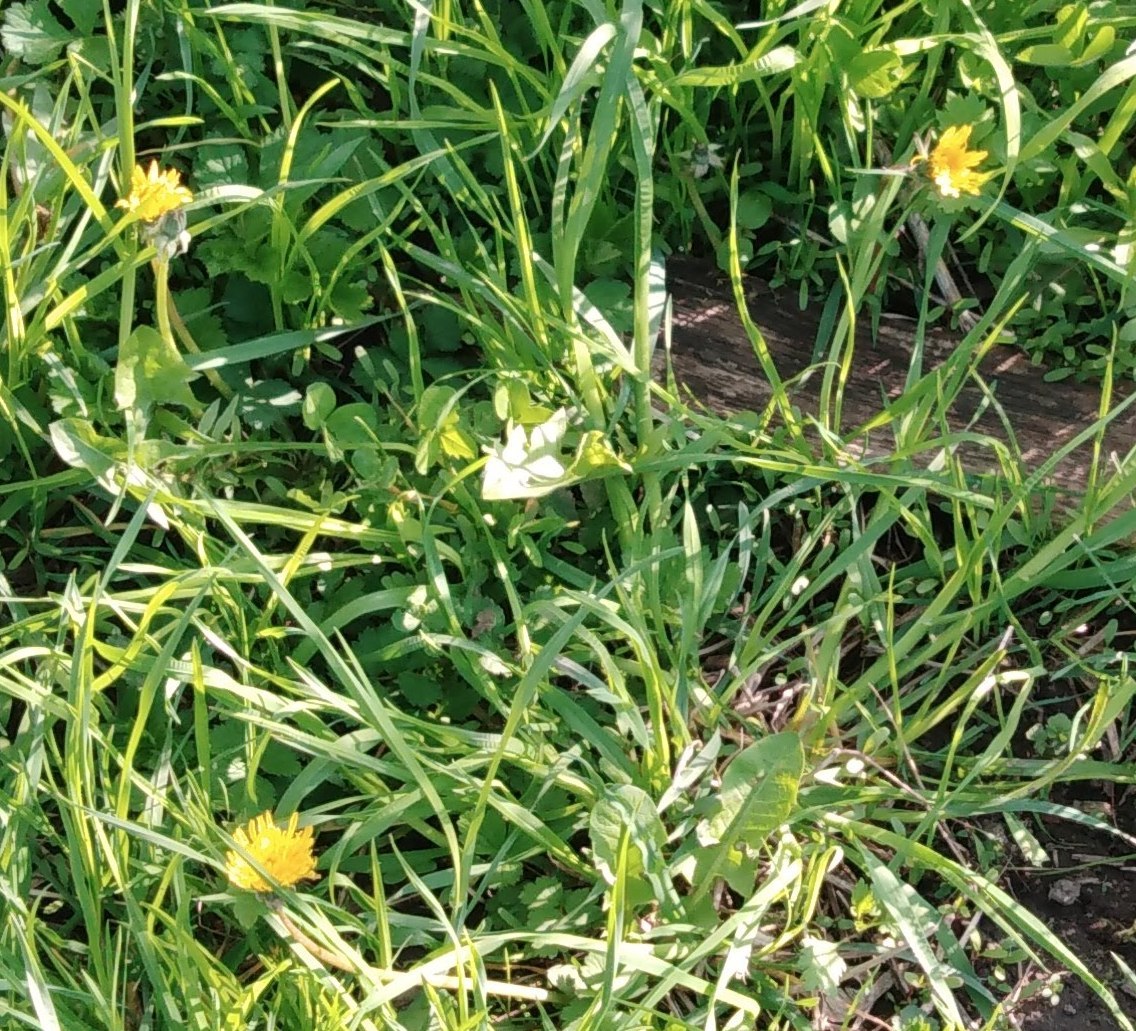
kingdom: Plantae
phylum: Tracheophyta
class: Magnoliopsida
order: Asterales
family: Asteraceae
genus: Taraxacum
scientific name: Taraxacum officinale
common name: Common dandelion
